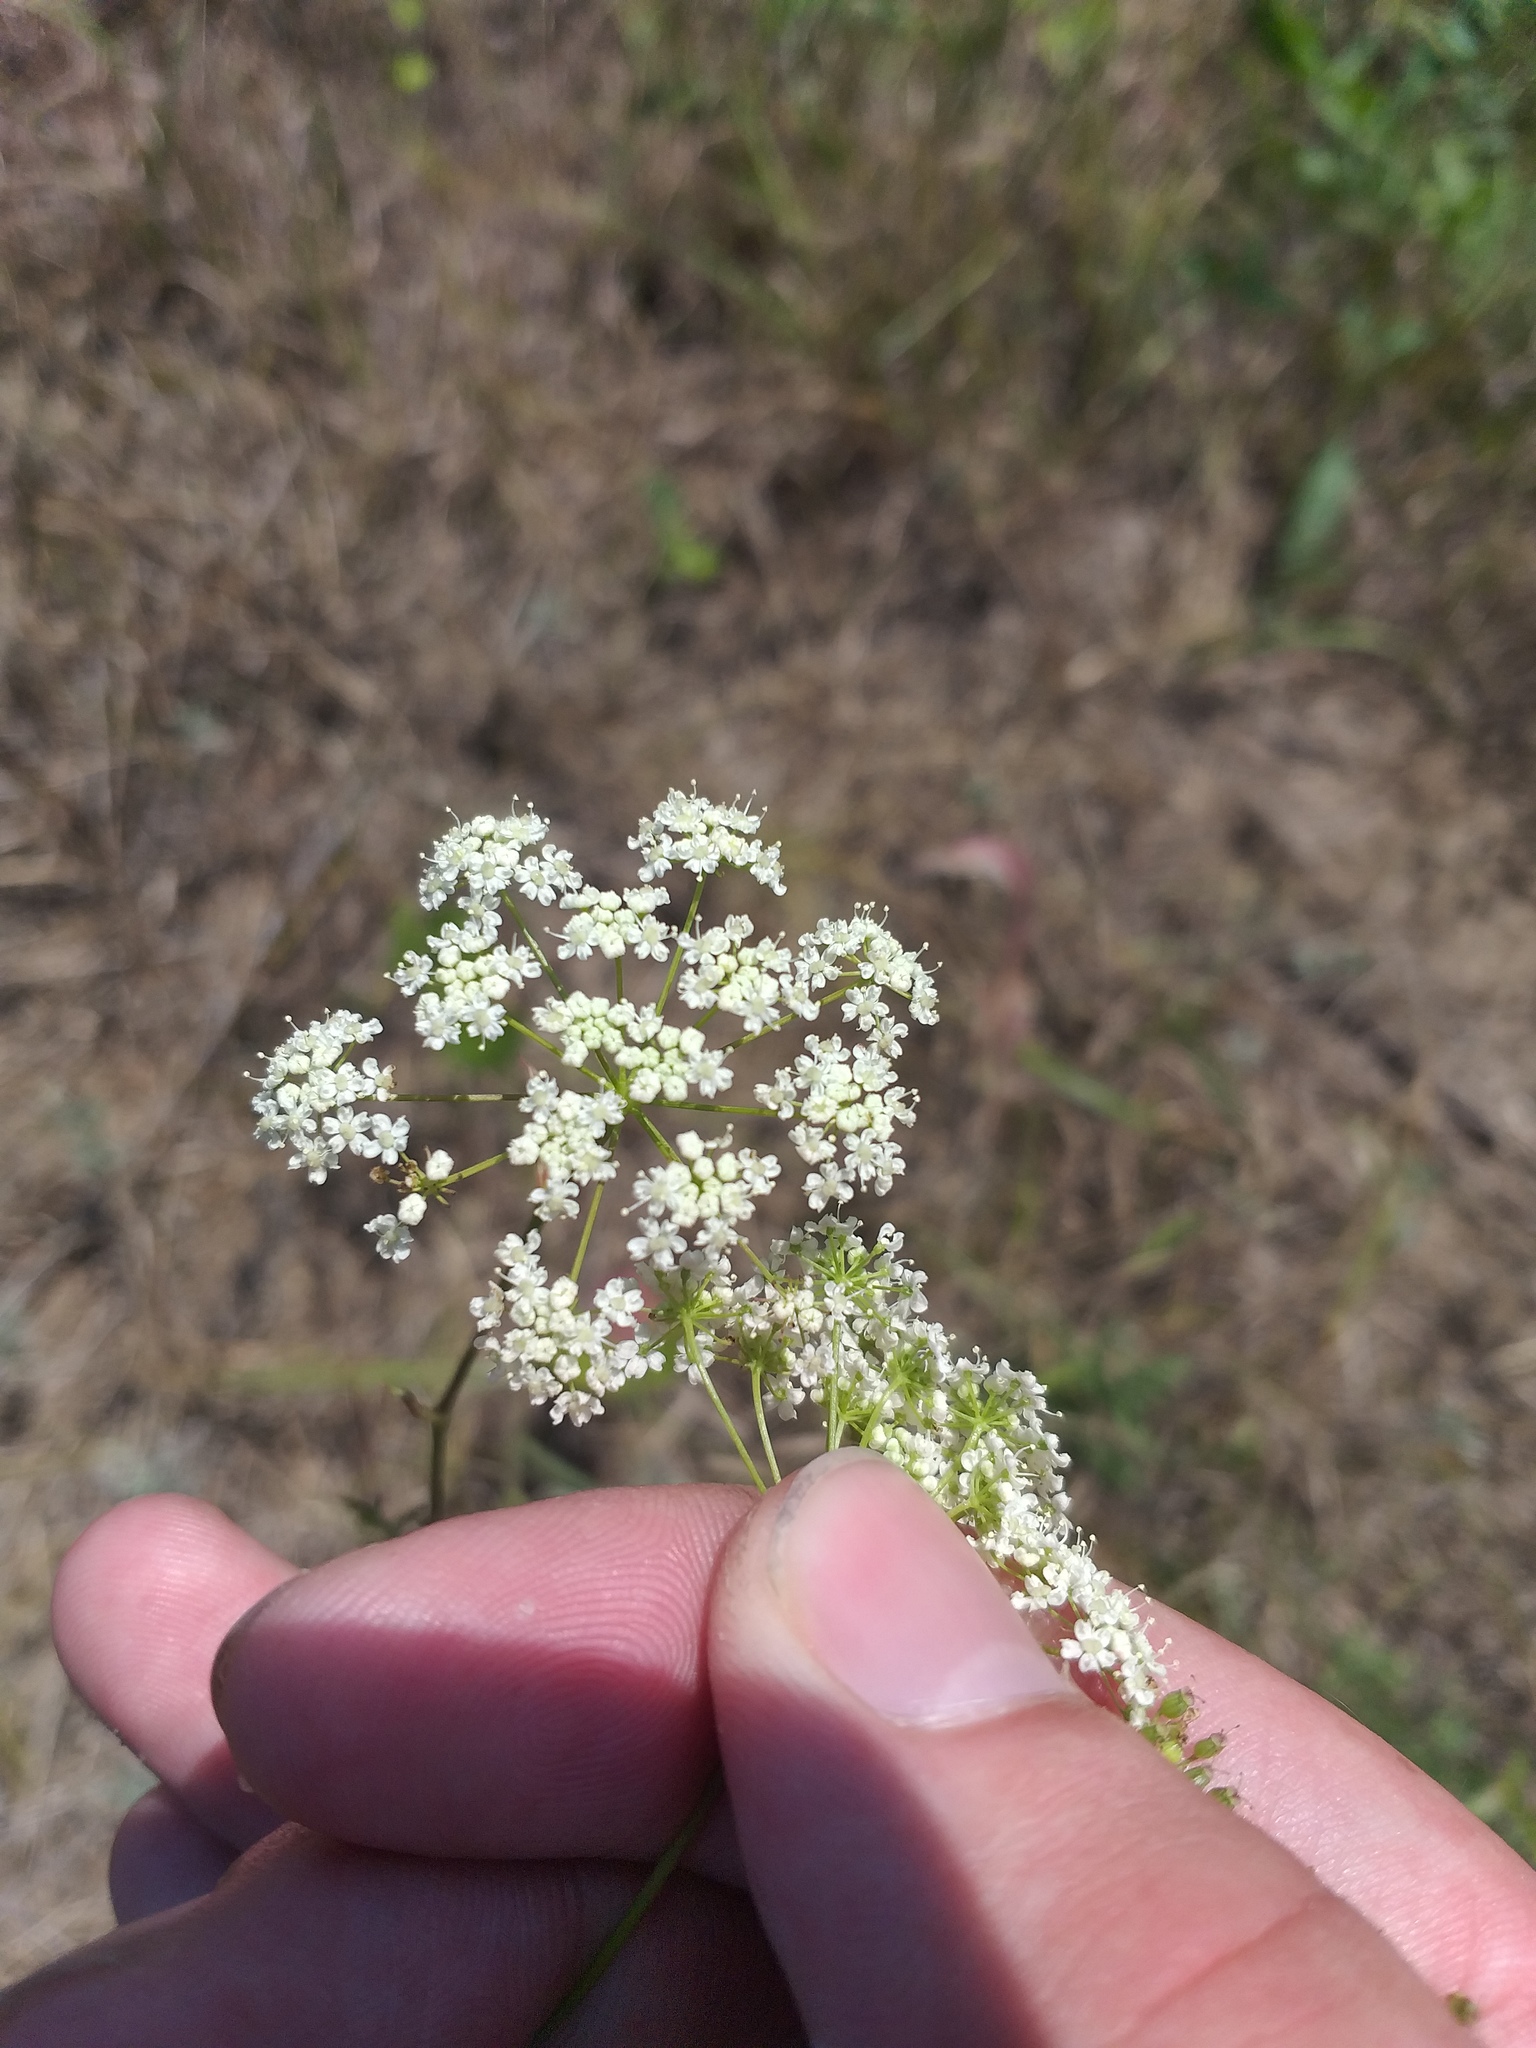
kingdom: Plantae
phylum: Tracheophyta
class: Magnoliopsida
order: Apiales
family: Apiaceae
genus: Pimpinella
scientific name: Pimpinella saxifraga
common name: Burnet-saxifrage
